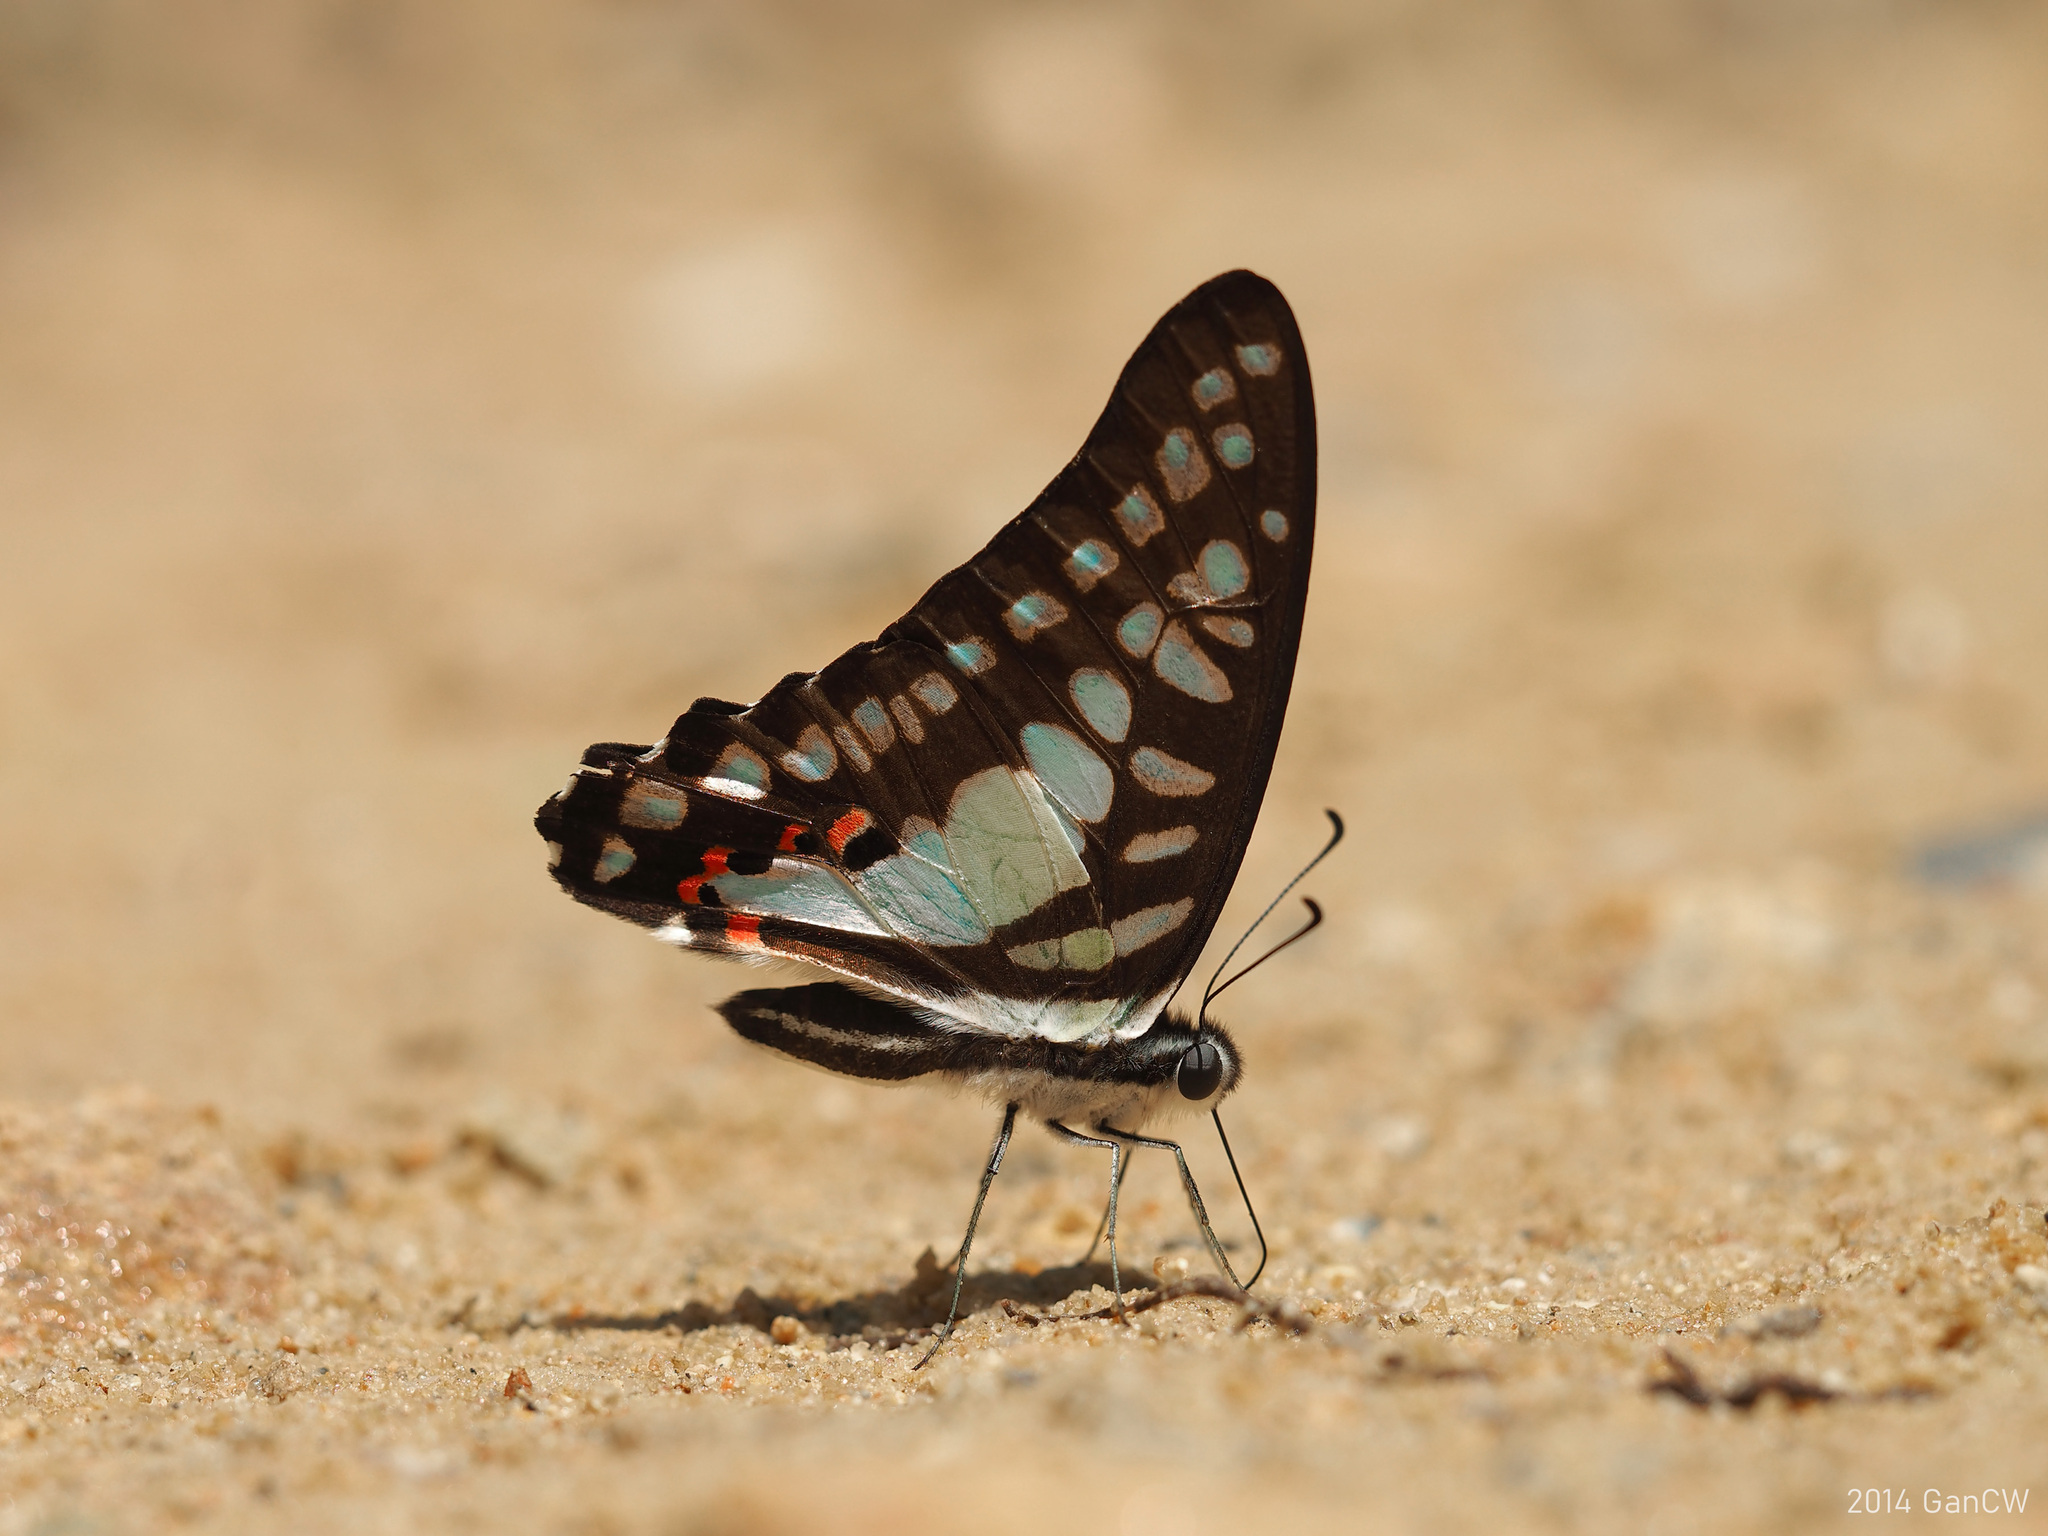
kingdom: Animalia
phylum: Arthropoda
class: Insecta
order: Lepidoptera
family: Papilionidae
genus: Graphium
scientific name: Graphium evemon
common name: Lesser jay
